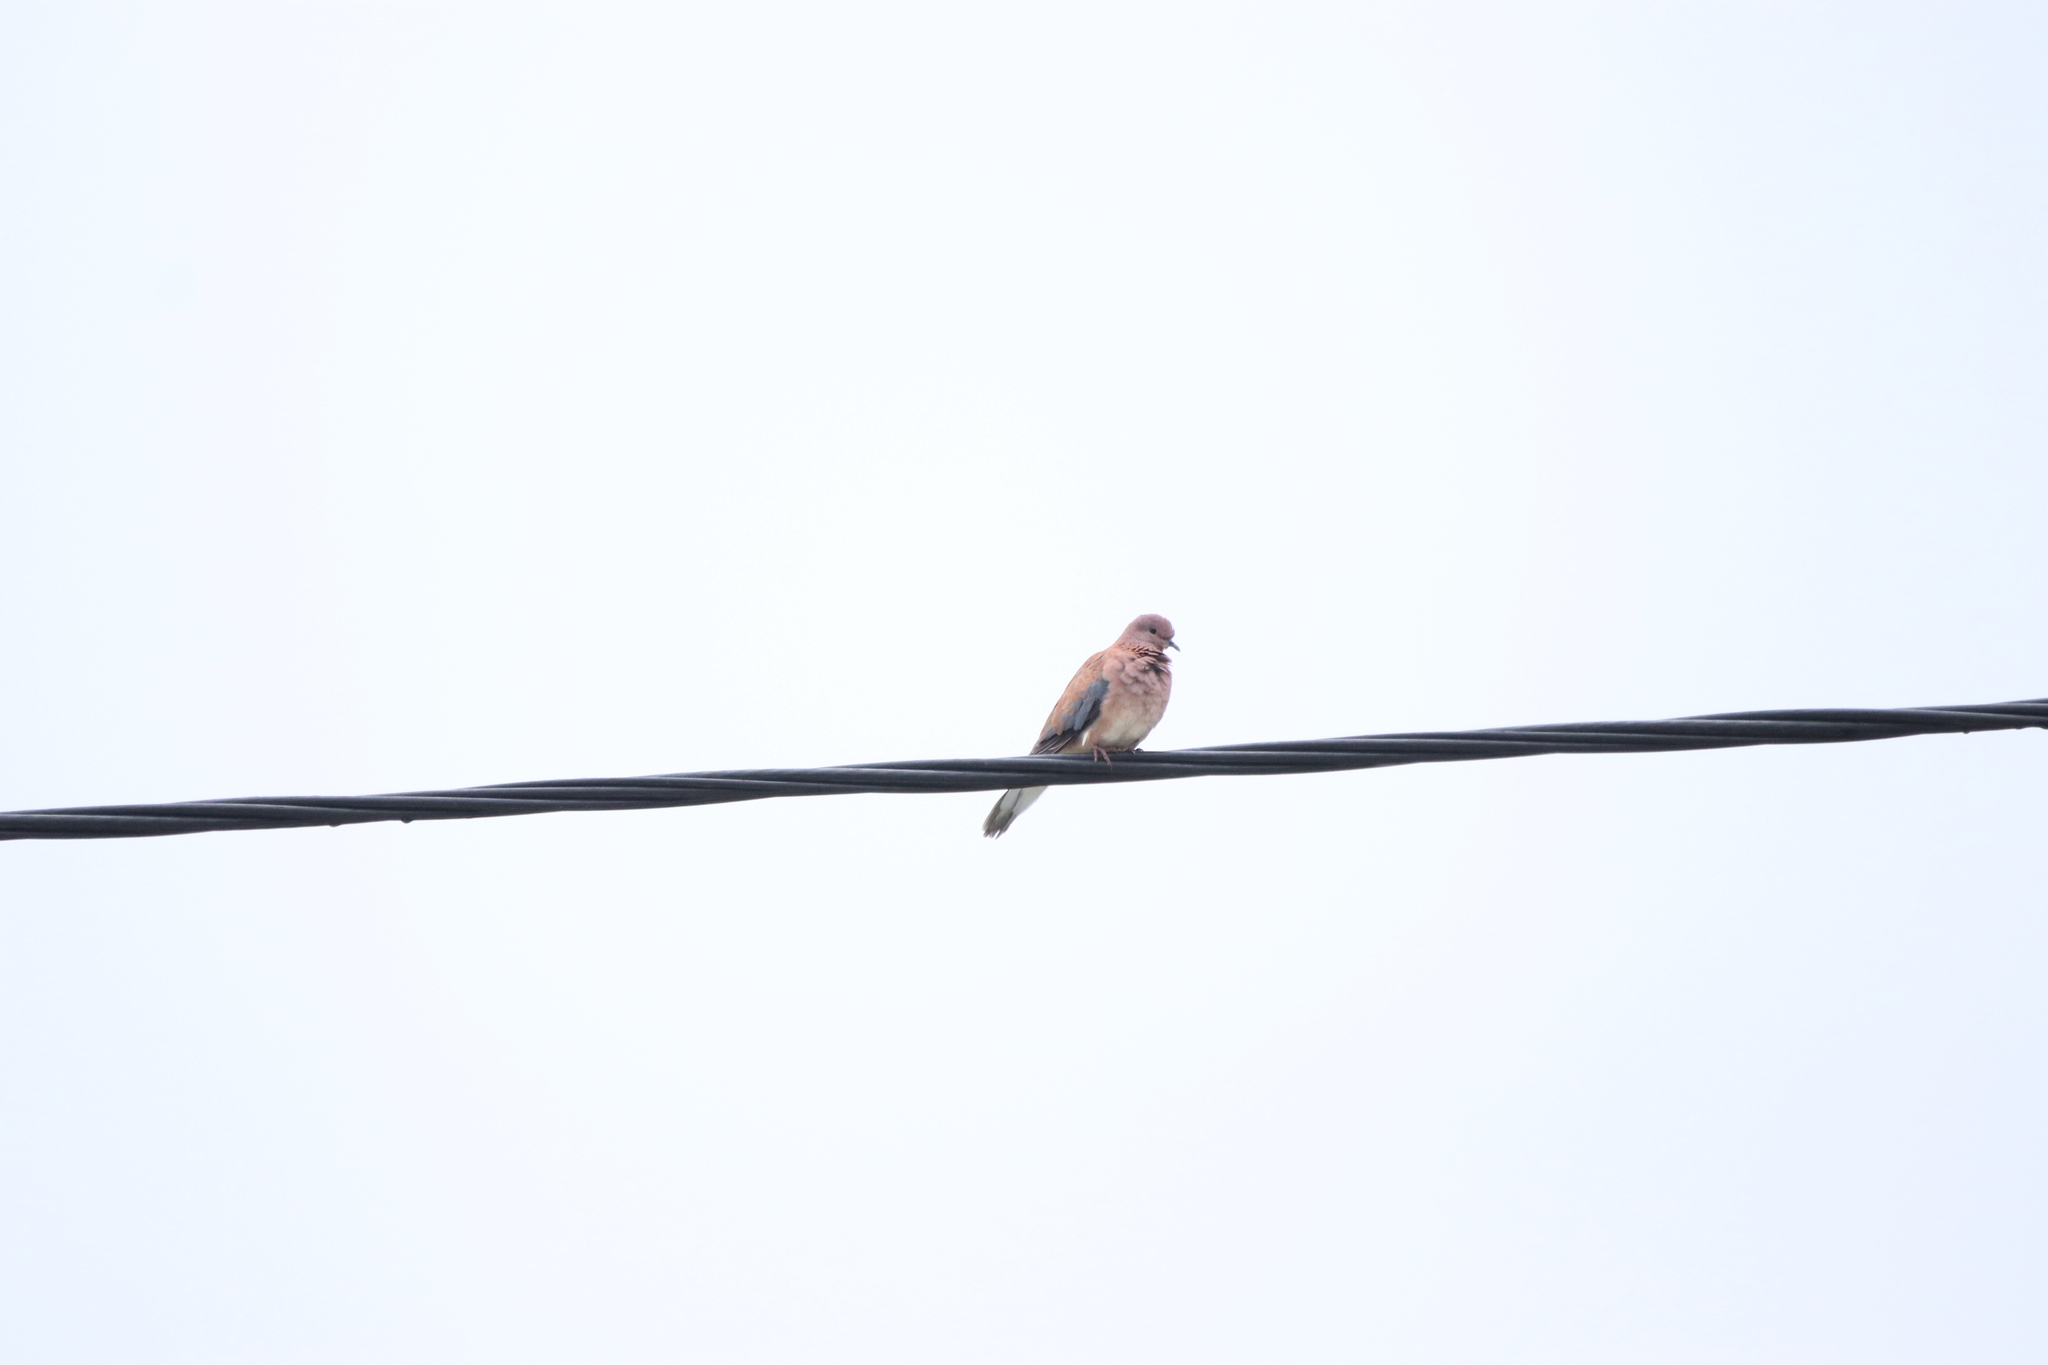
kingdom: Animalia
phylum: Chordata
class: Aves
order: Columbiformes
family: Columbidae
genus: Spilopelia
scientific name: Spilopelia senegalensis
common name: Laughing dove
